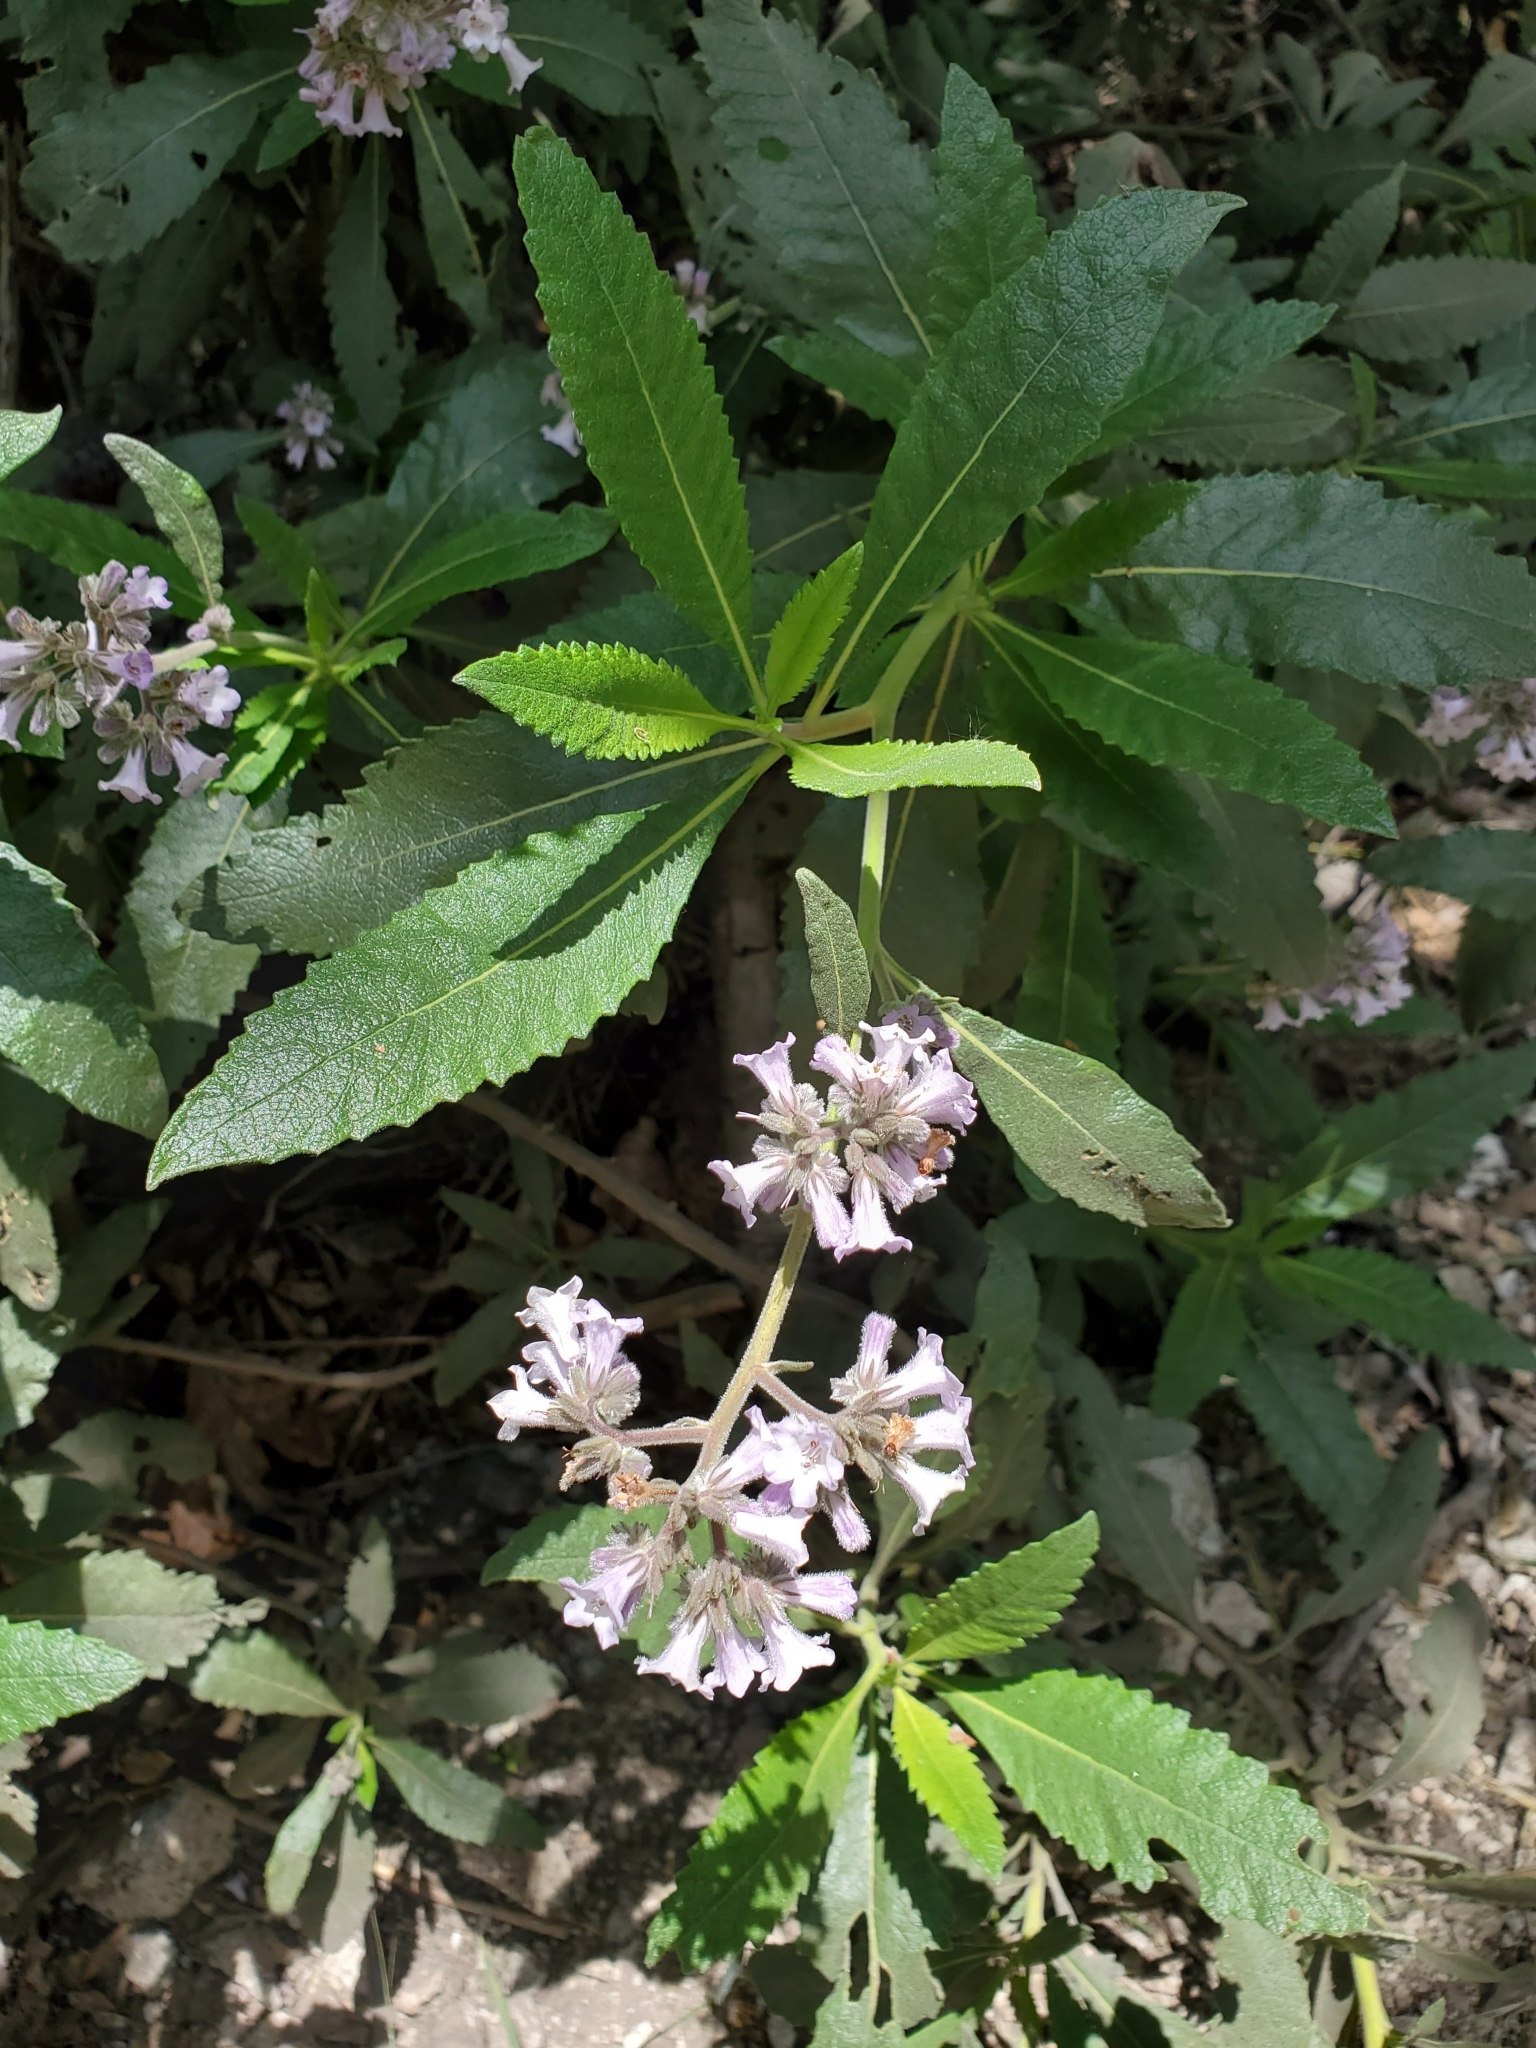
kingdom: Plantae
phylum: Tracheophyta
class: Magnoliopsida
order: Boraginales
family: Namaceae
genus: Eriodictyon
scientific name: Eriodictyon crassifolium
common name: Thick-leaf yerba-santa
